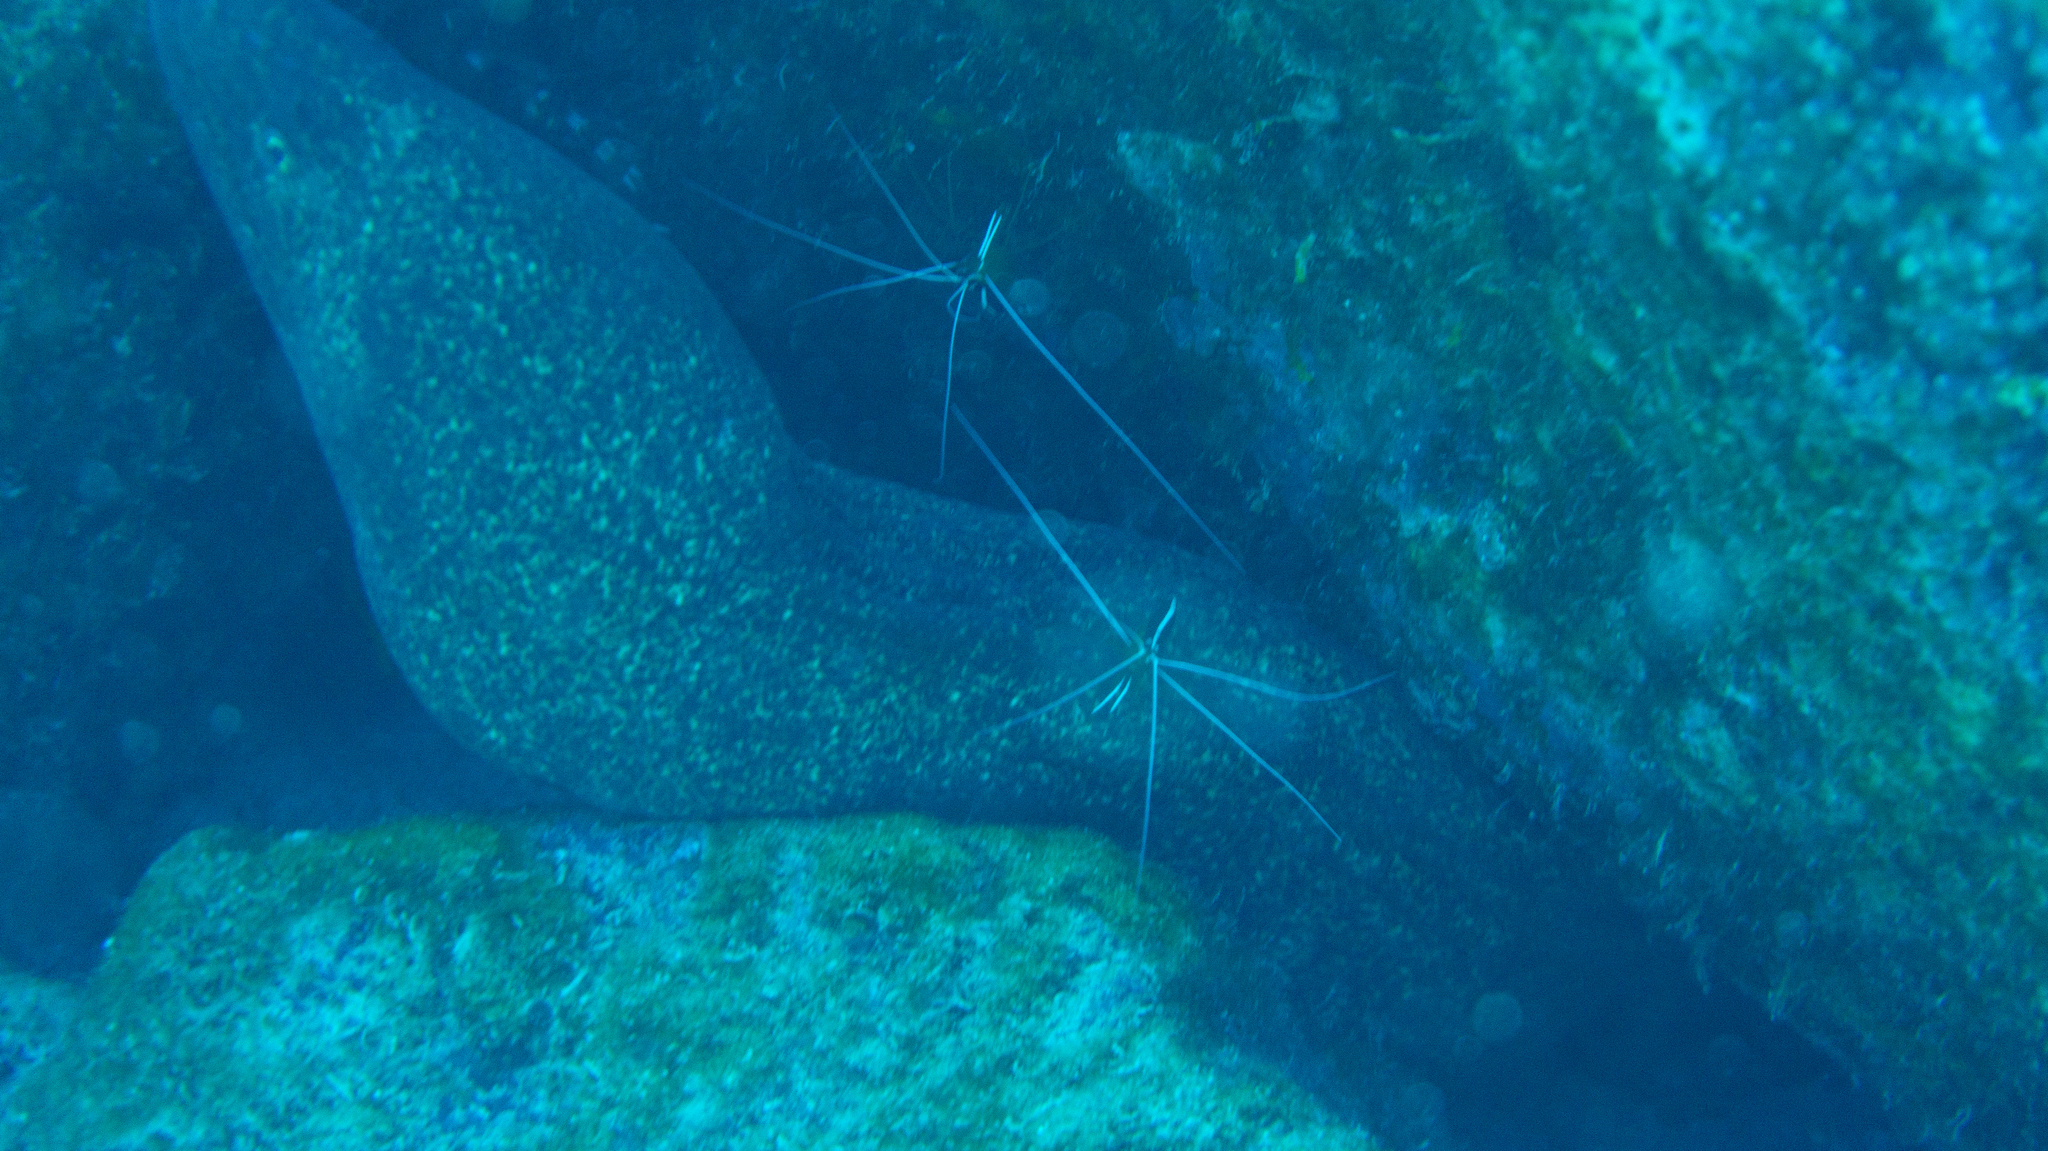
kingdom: Animalia
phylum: Chordata
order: Anguilliformes
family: Muraenidae
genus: Gymnothorax
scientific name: Gymnothorax flavimarginatus
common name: Yellow-edged moray
